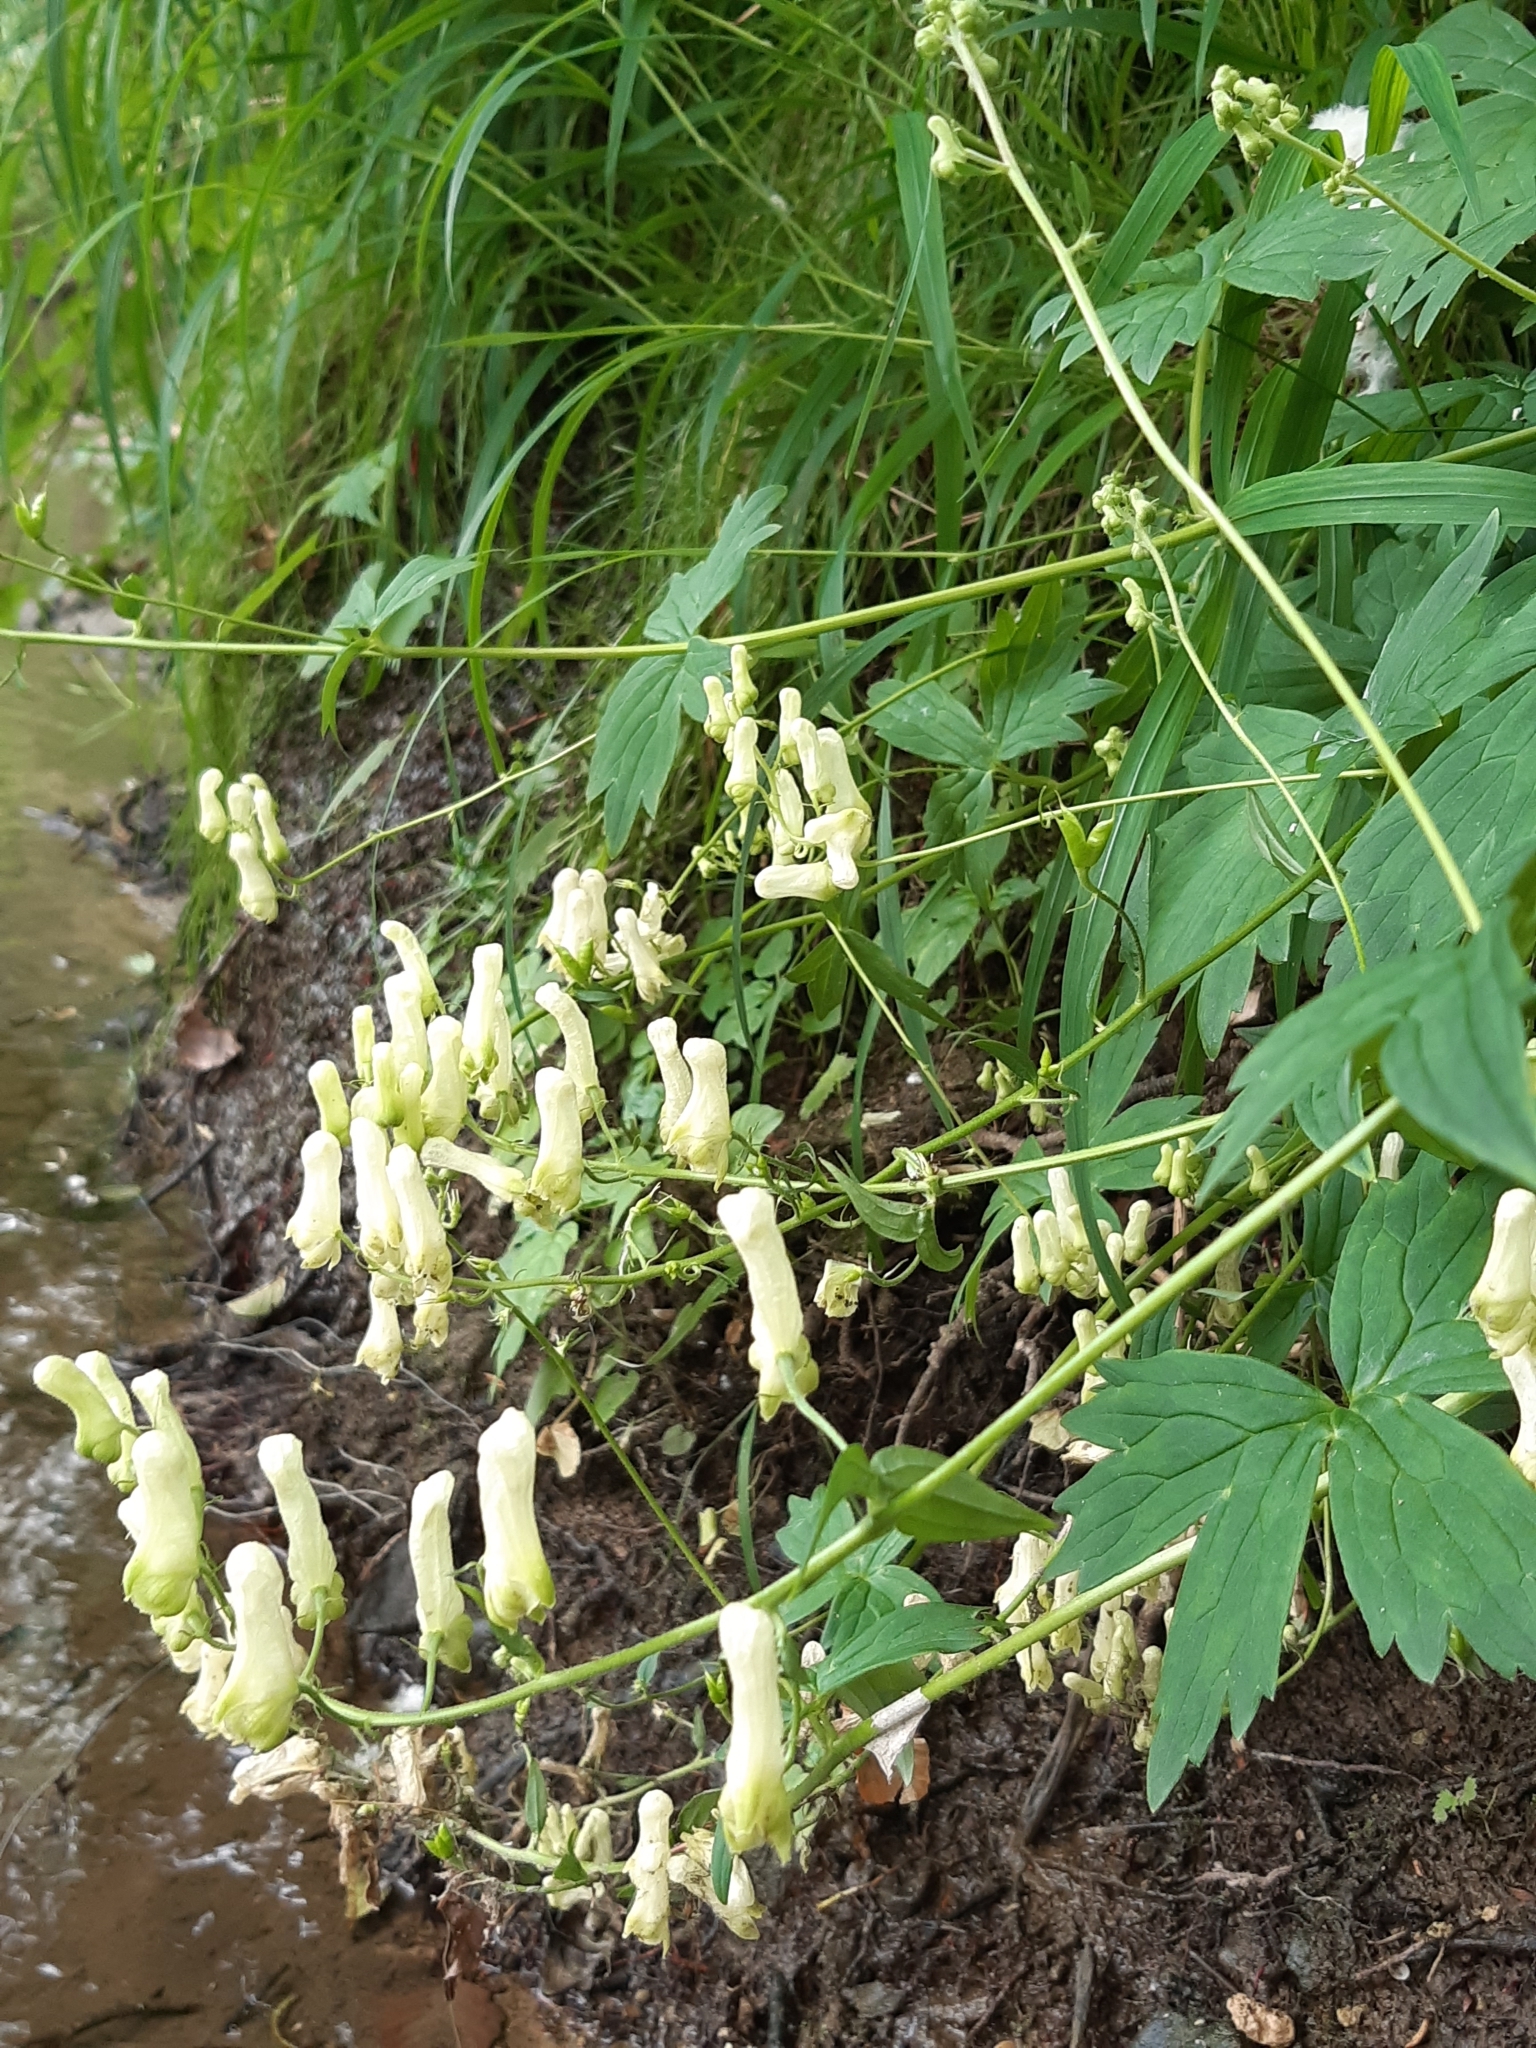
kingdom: Plantae
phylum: Tracheophyta
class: Magnoliopsida
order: Ranunculales
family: Ranunculaceae
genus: Aconitum
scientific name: Aconitum lycoctonum
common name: Wolf's-bane
